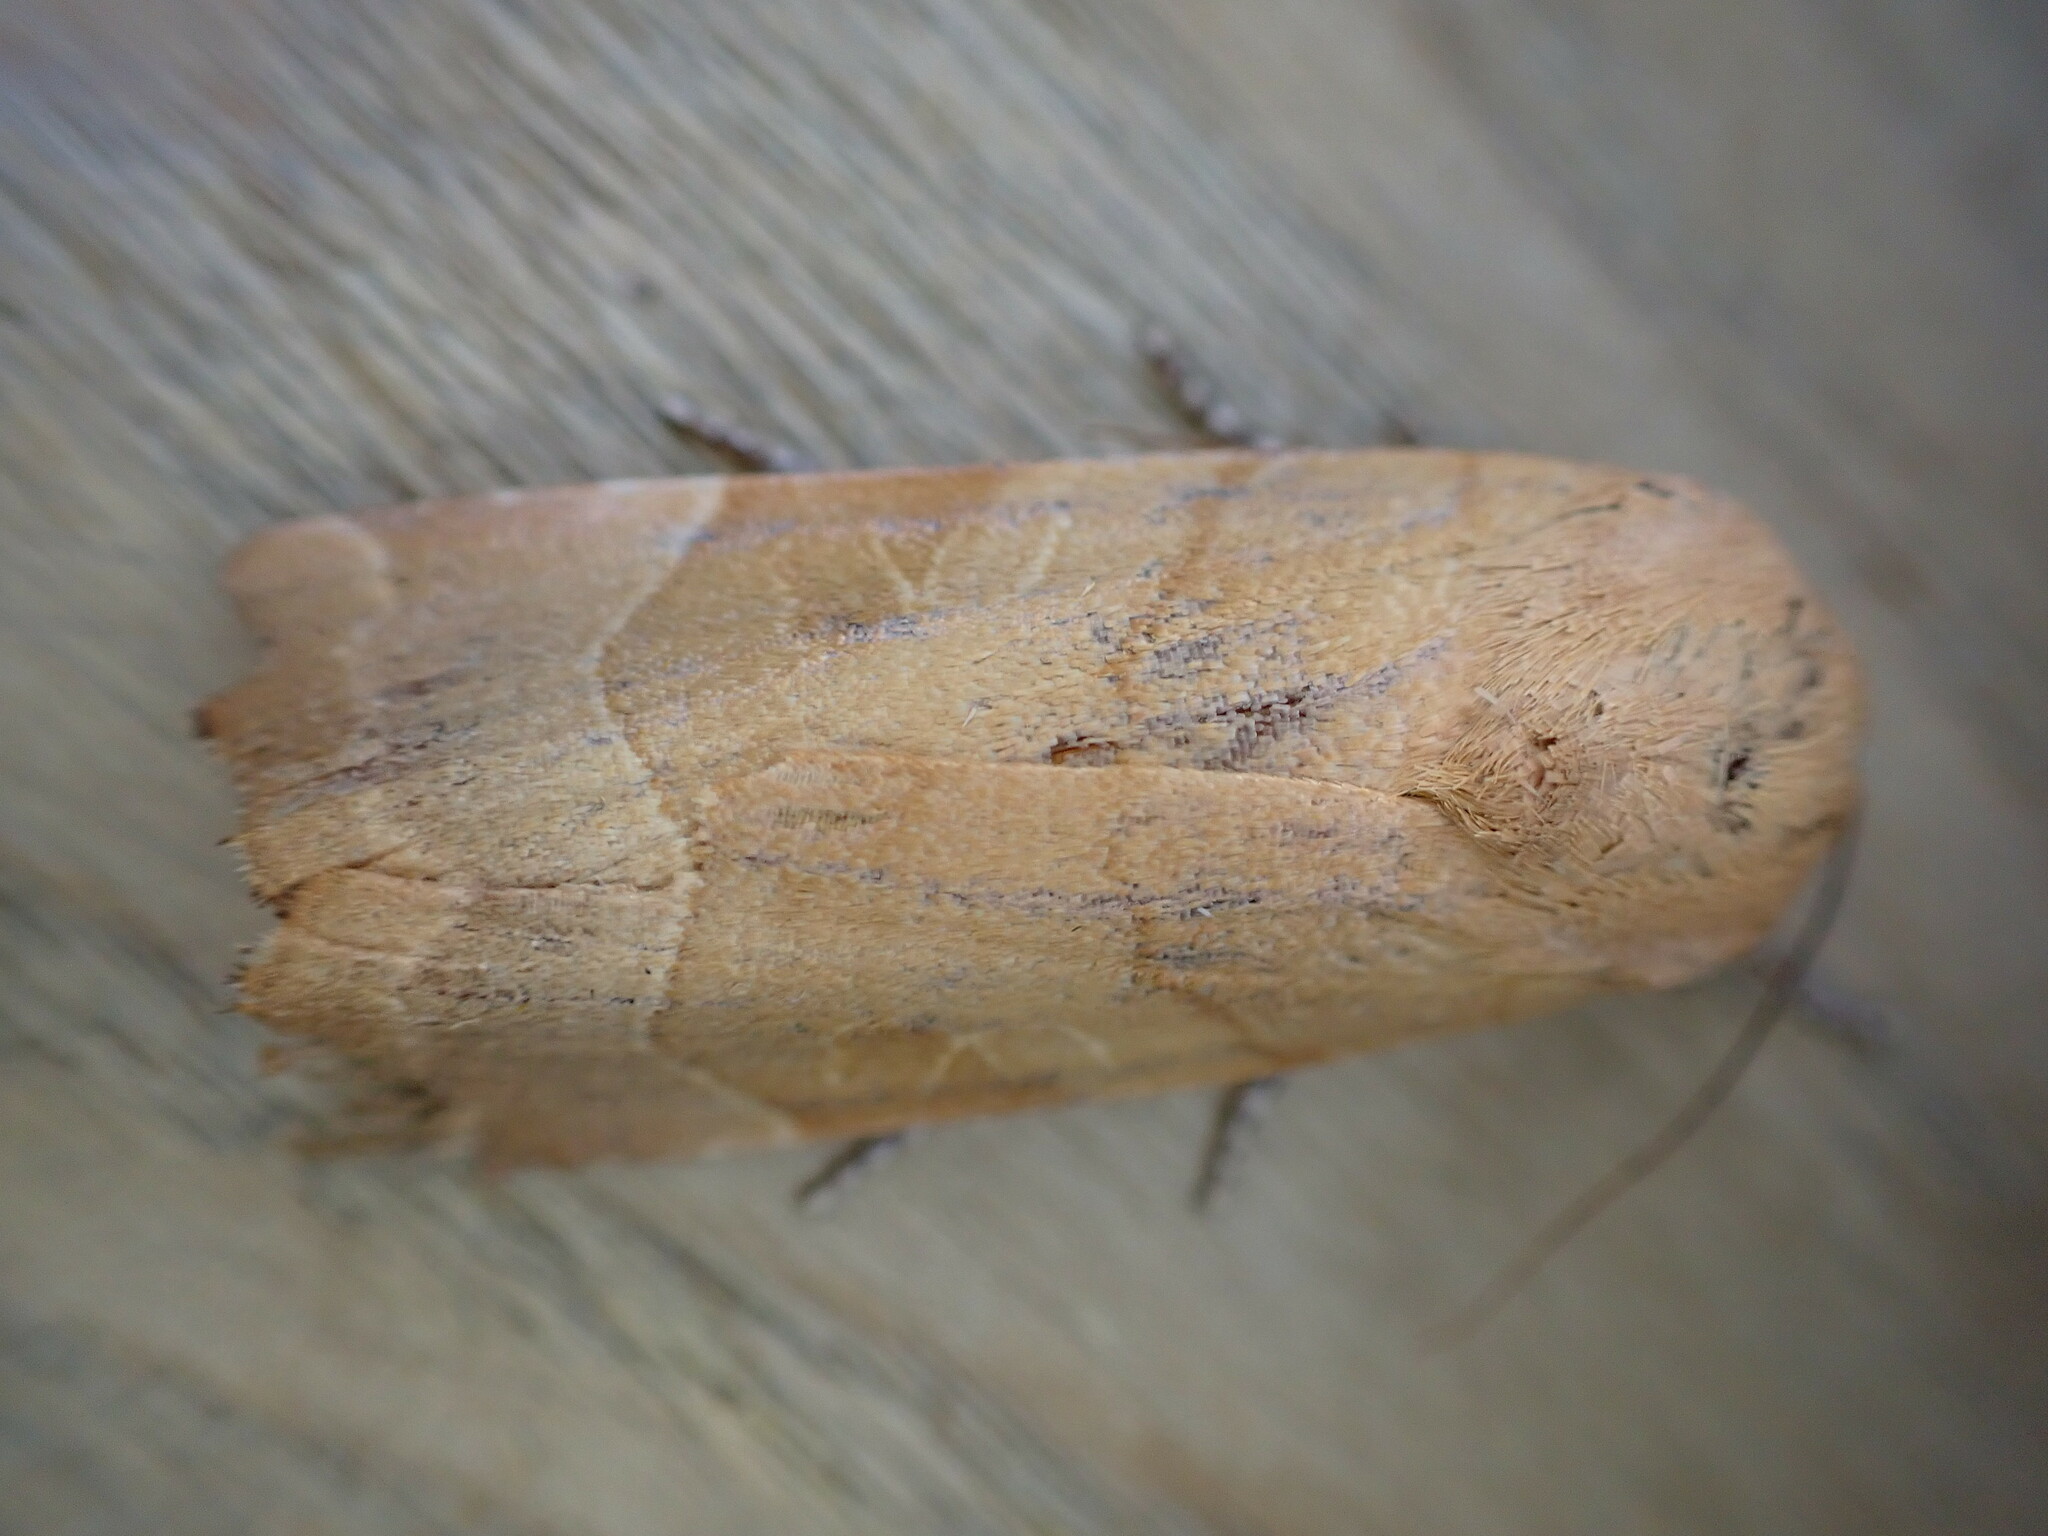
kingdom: Animalia
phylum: Arthropoda
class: Insecta
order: Lepidoptera
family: Noctuidae
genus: Noctua
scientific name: Noctua fimbriata
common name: Broad-bordered yellow underwing
